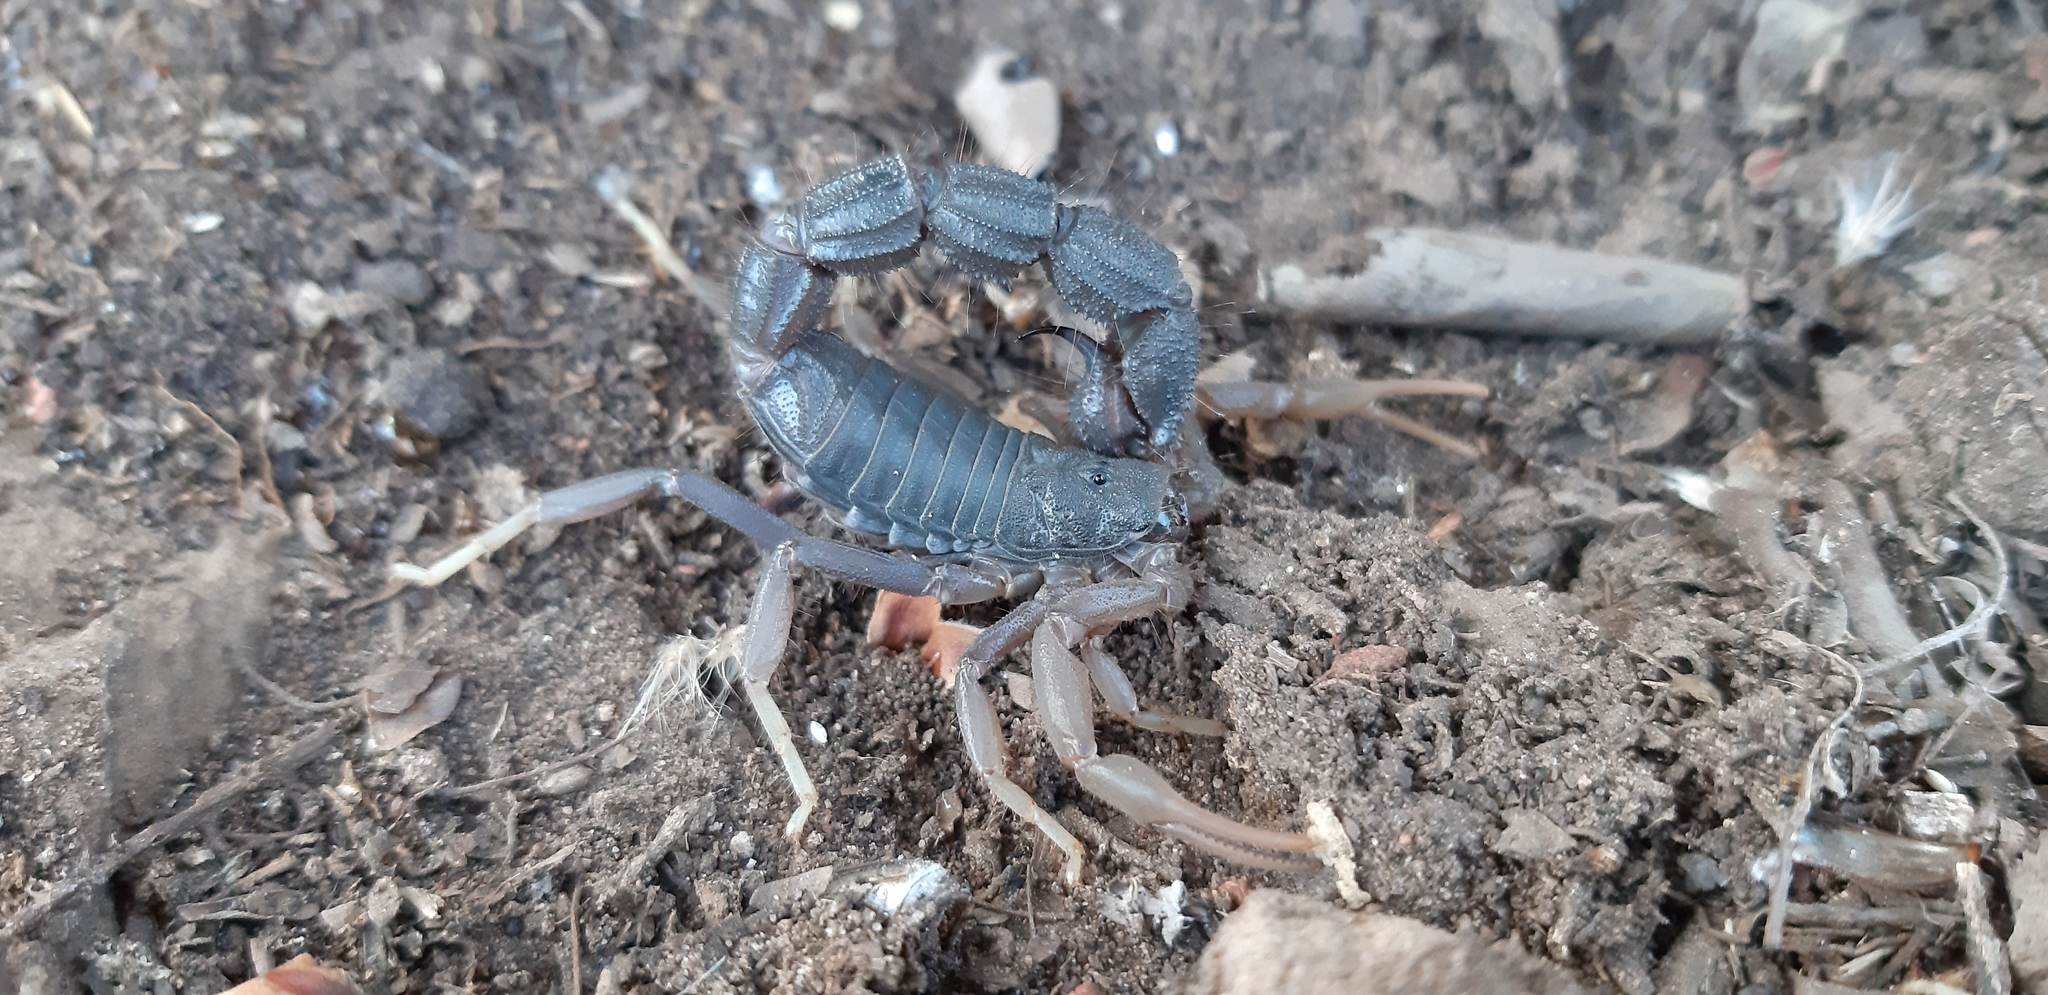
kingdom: Animalia
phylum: Arthropoda
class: Arachnida
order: Scorpiones
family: Buthidae
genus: Parabuthus
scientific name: Parabuthus transvaalicus
